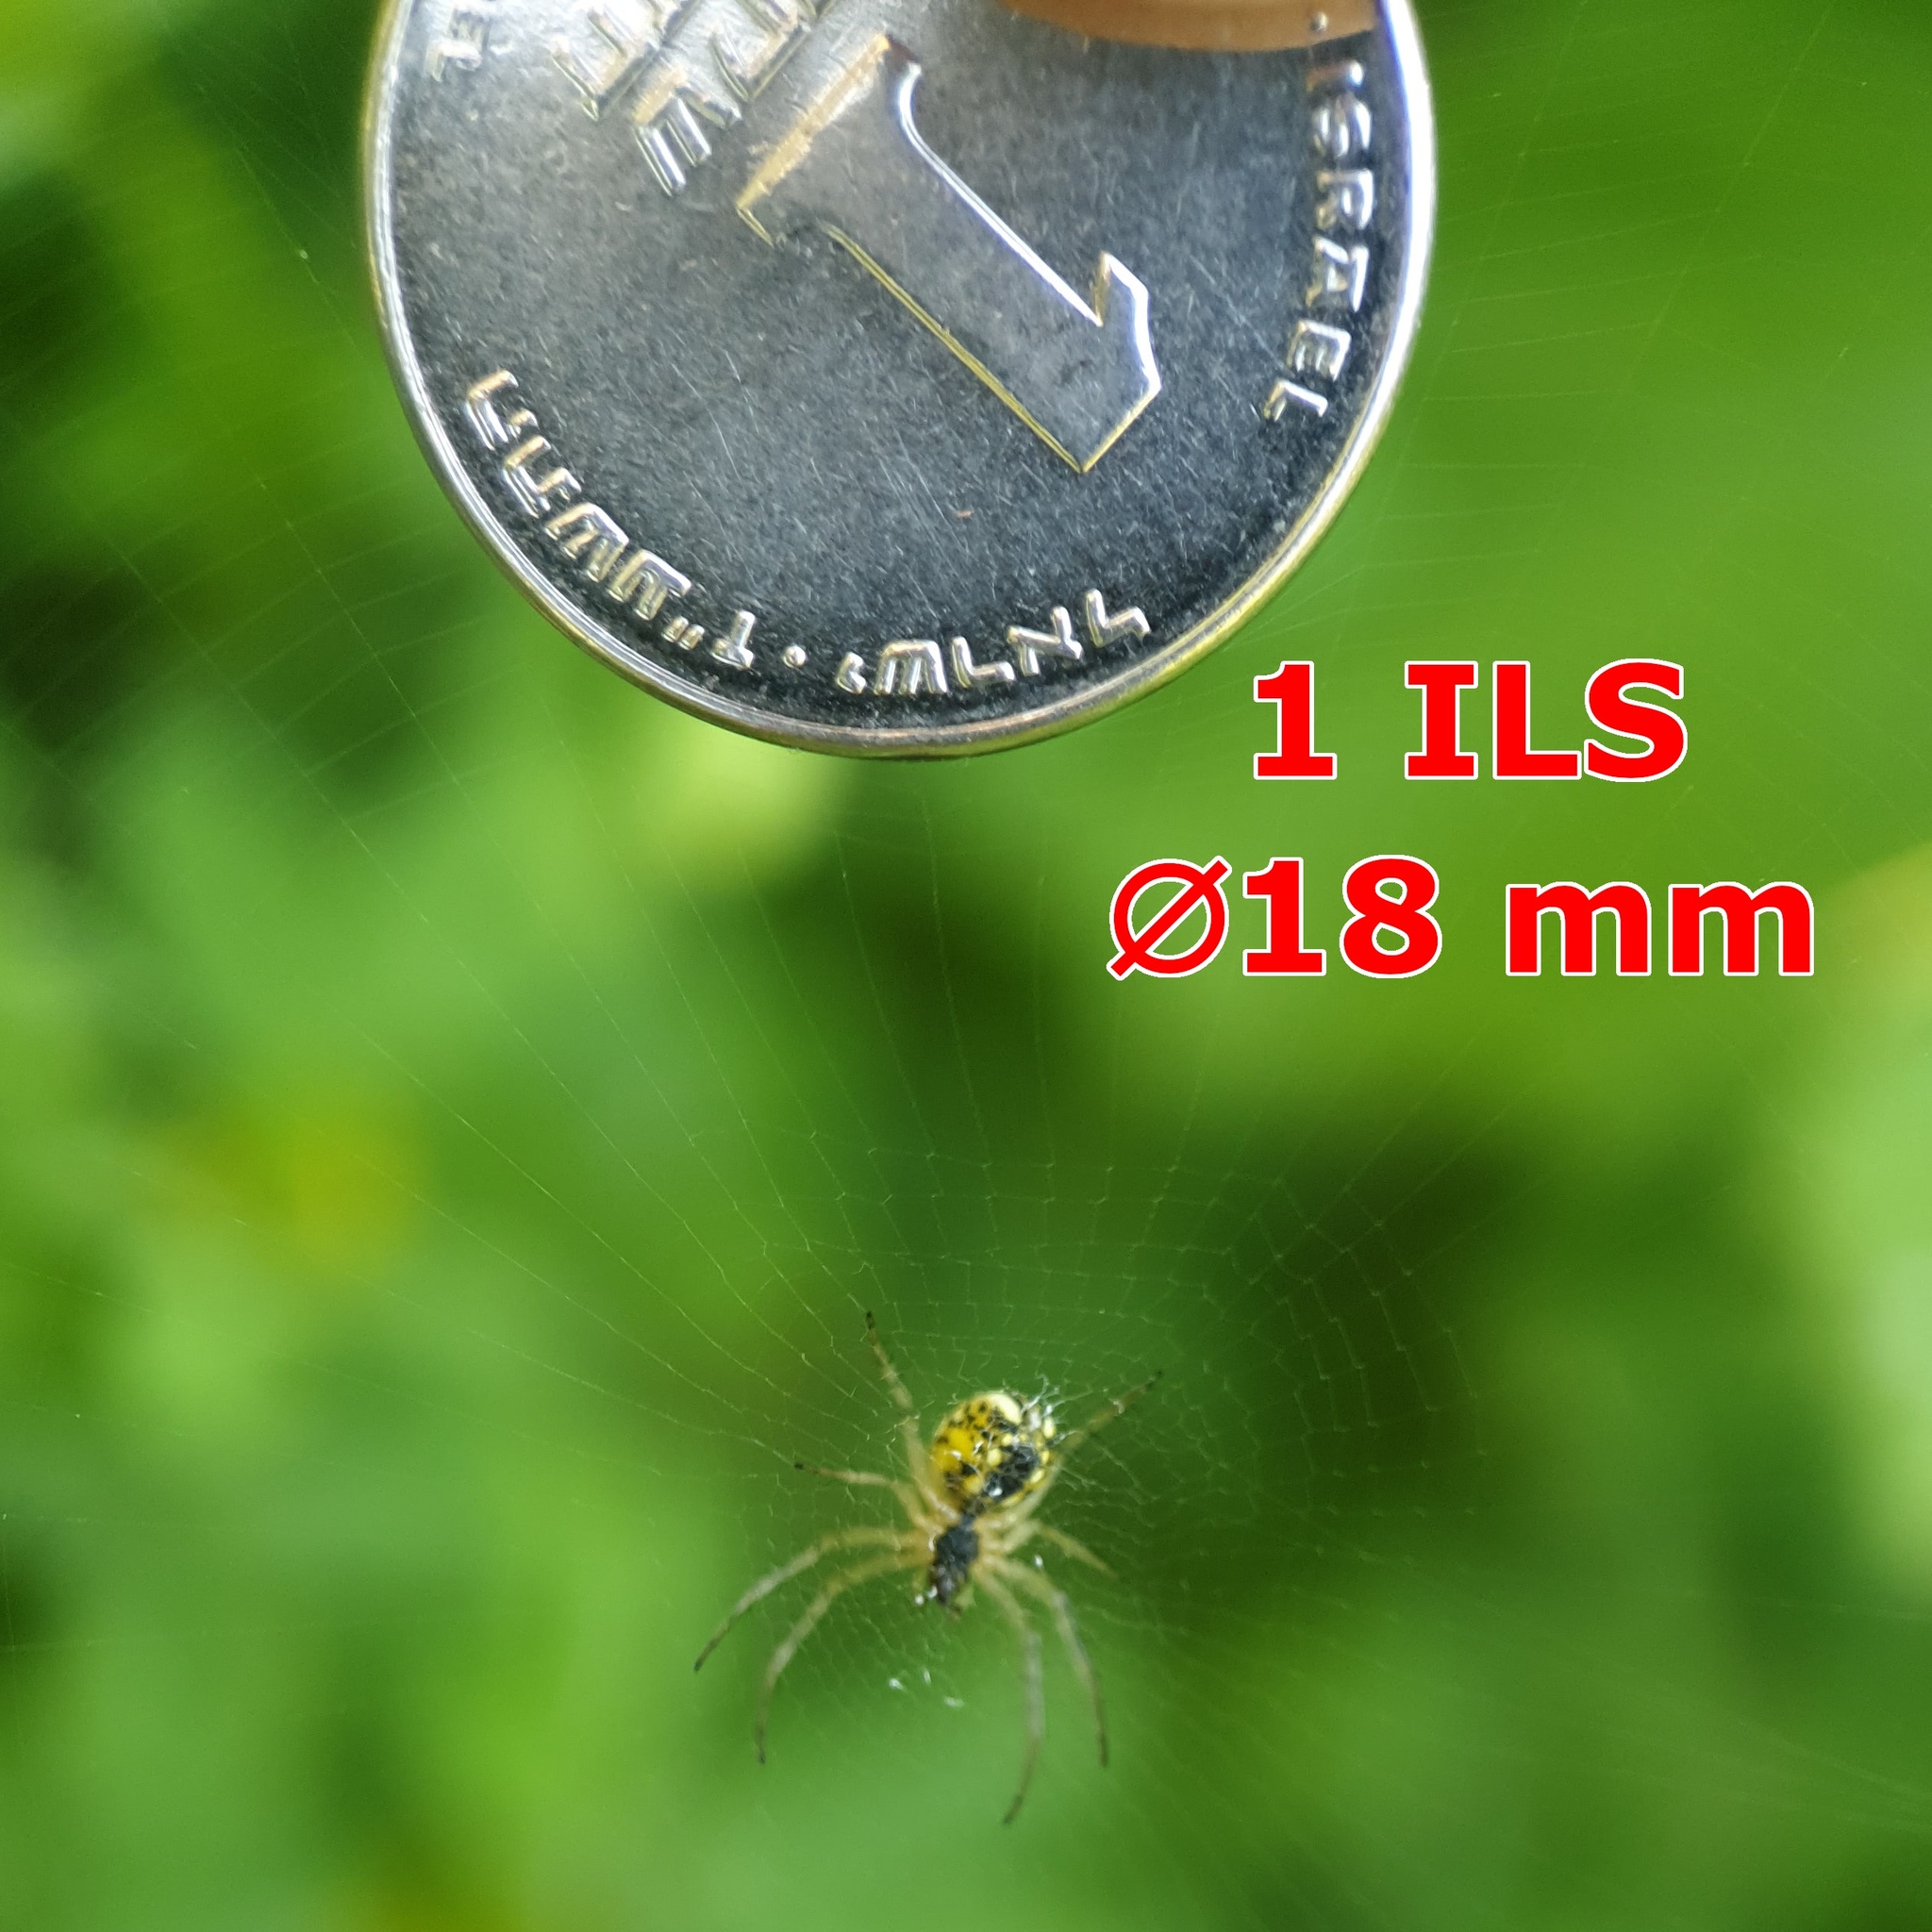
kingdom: Animalia
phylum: Arthropoda
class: Arachnida
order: Araneae
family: Araneidae
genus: Mangora
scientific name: Mangora acalypha
